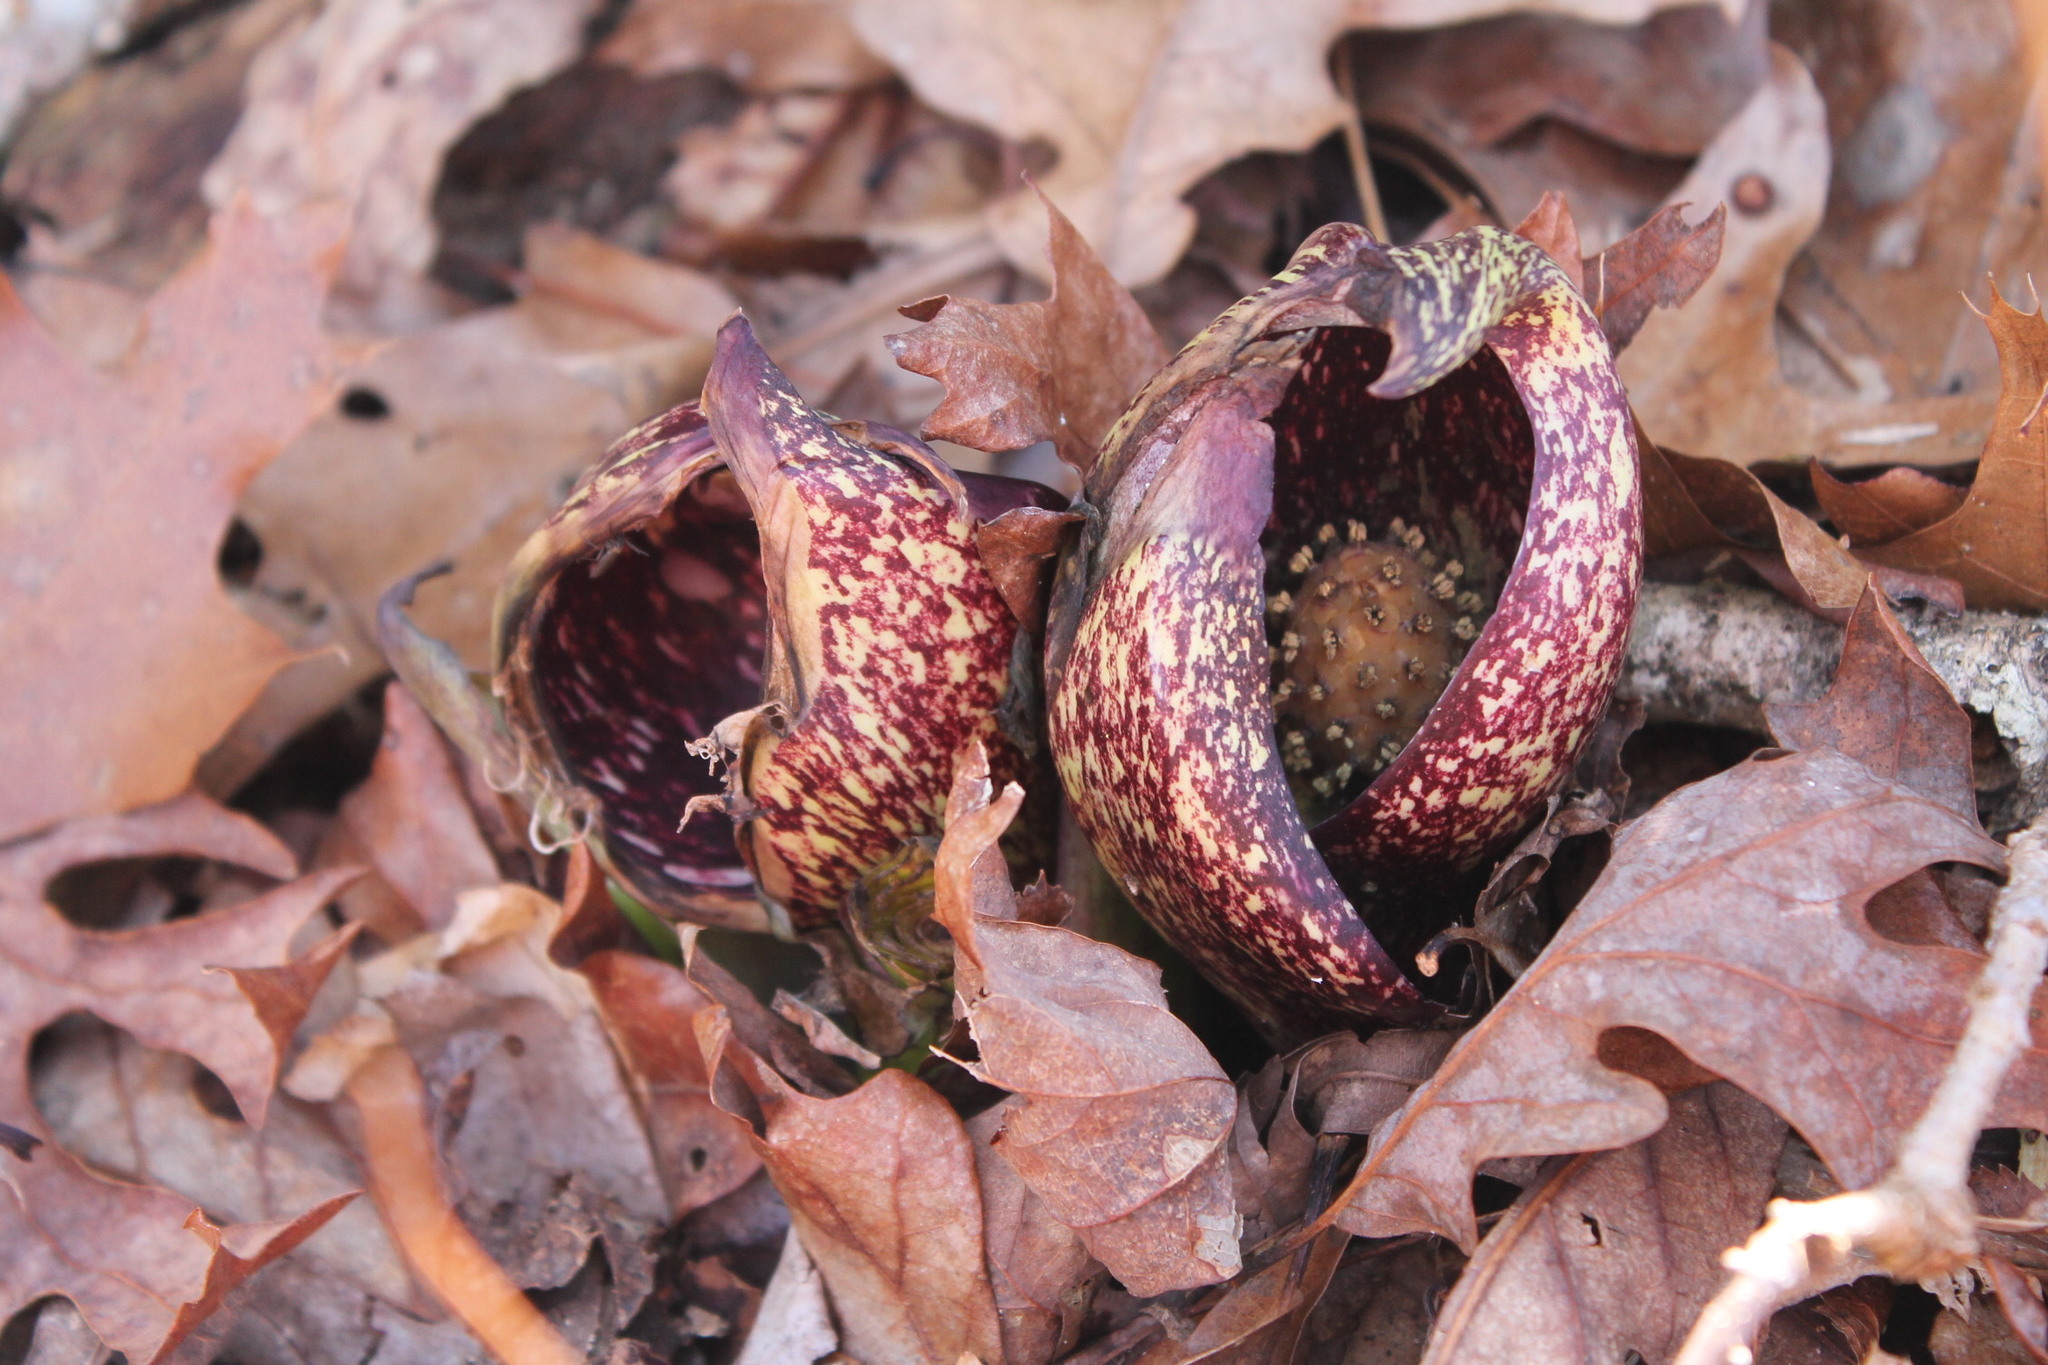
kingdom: Plantae
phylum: Tracheophyta
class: Liliopsida
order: Alismatales
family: Araceae
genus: Symplocarpus
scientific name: Symplocarpus foetidus
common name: Eastern skunk cabbage
